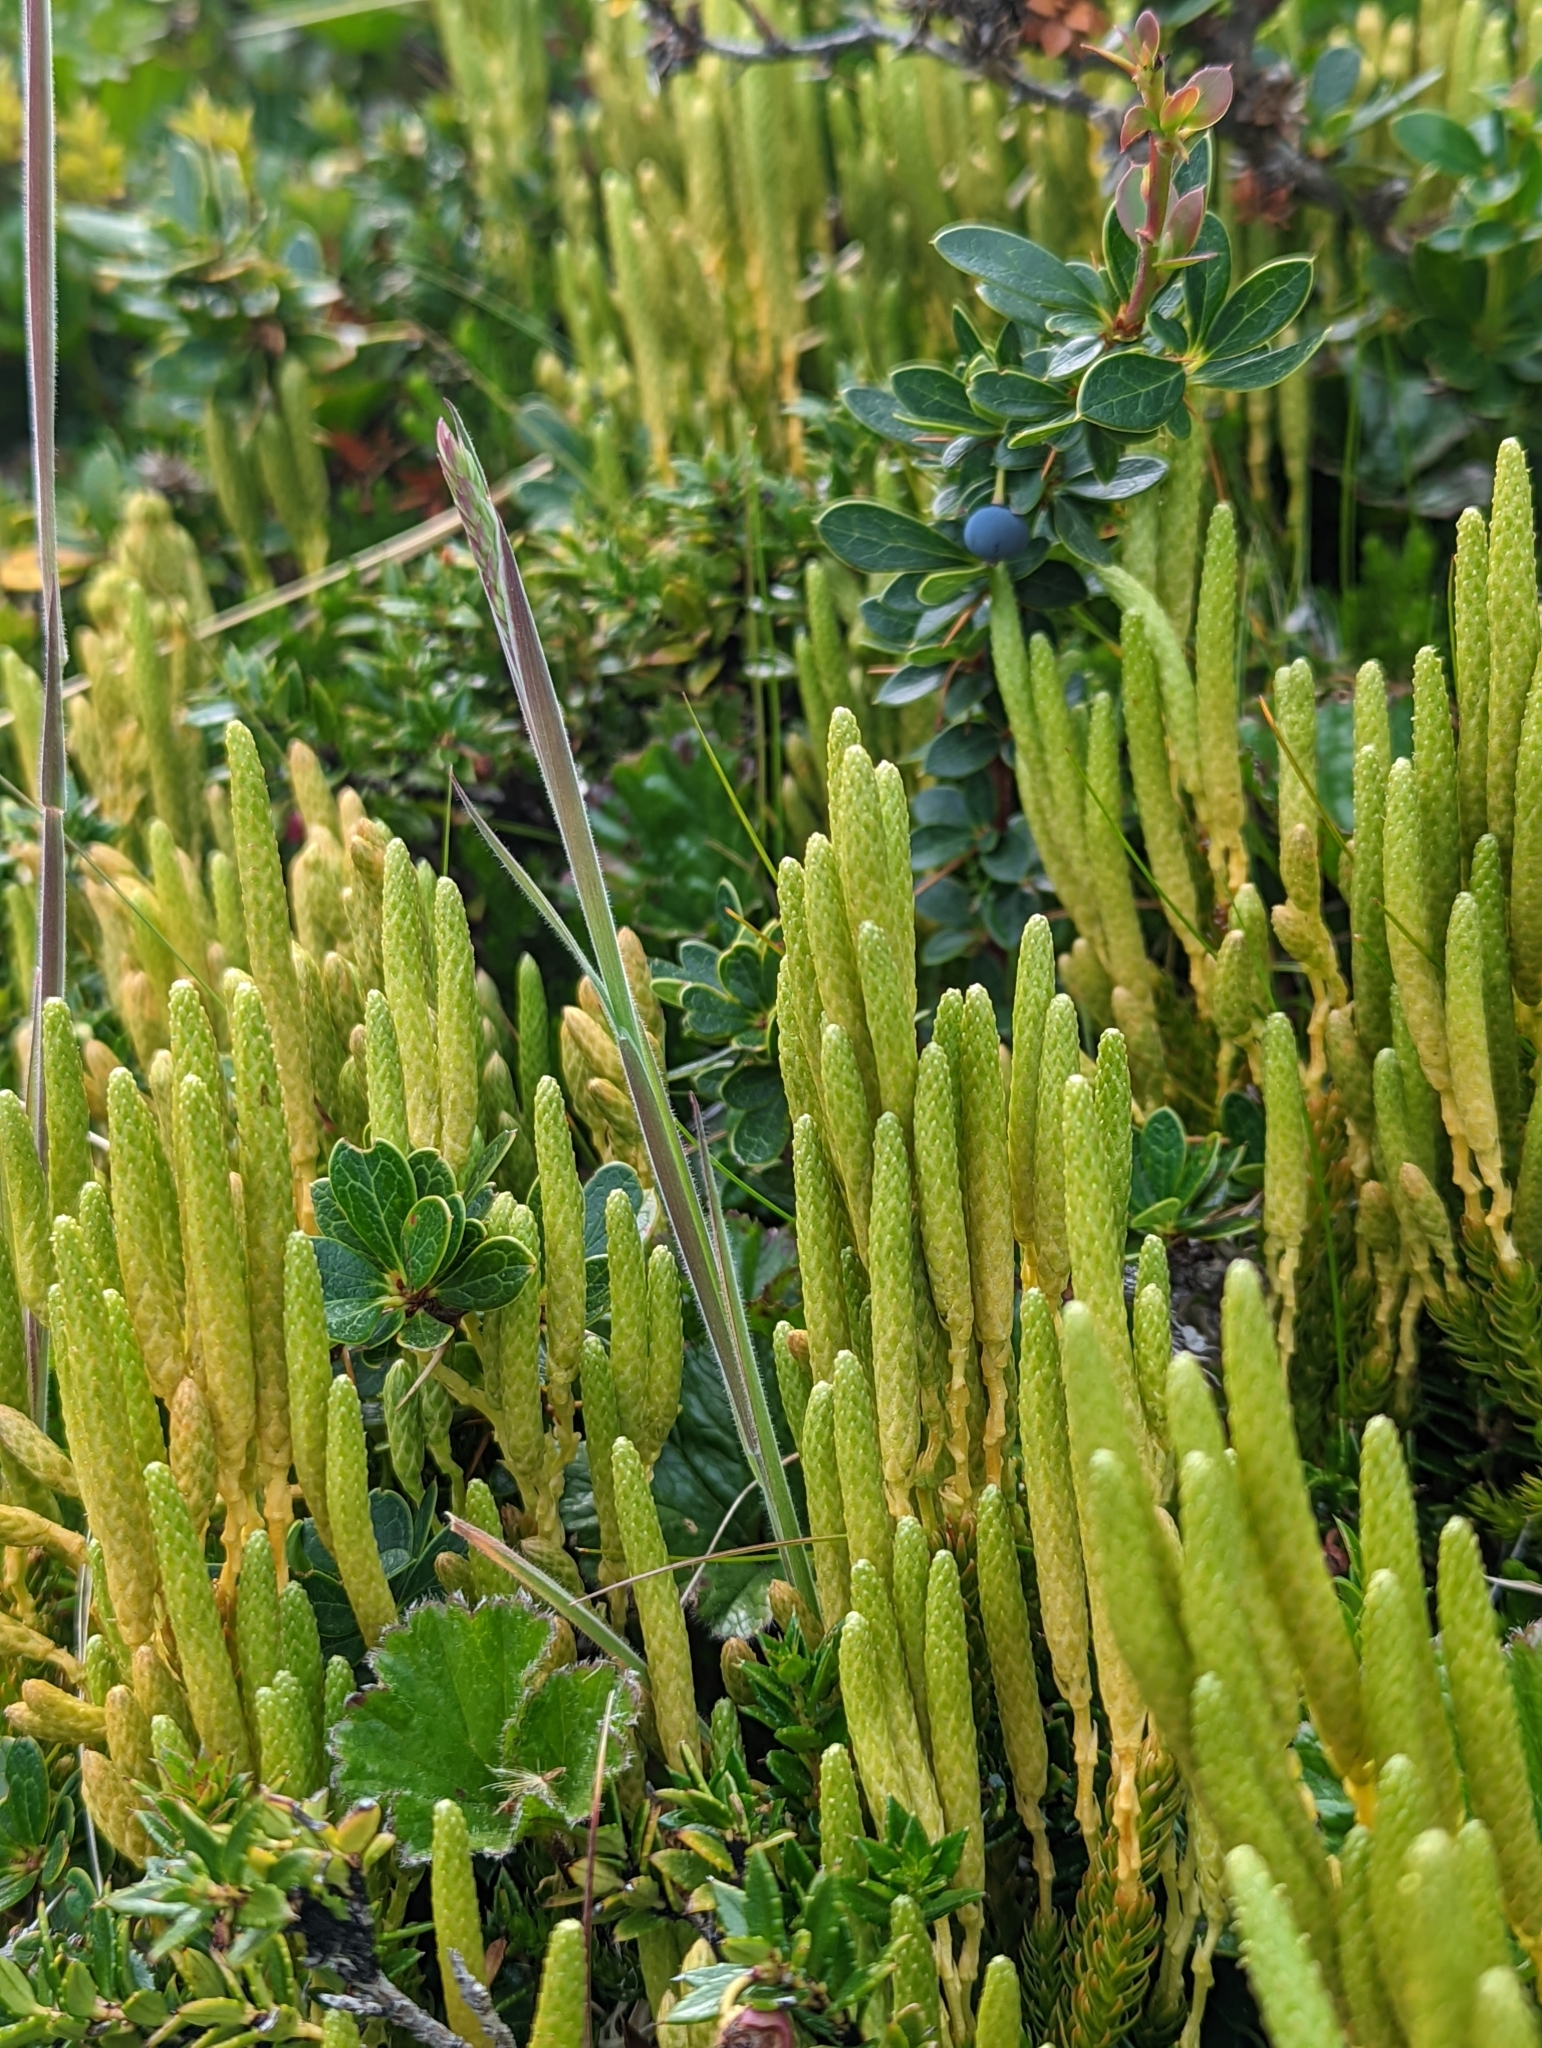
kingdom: Plantae
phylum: Tracheophyta
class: Lycopodiopsida
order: Lycopodiales
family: Lycopodiaceae
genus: Austrolycopodium
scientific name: Austrolycopodium magellanicum
